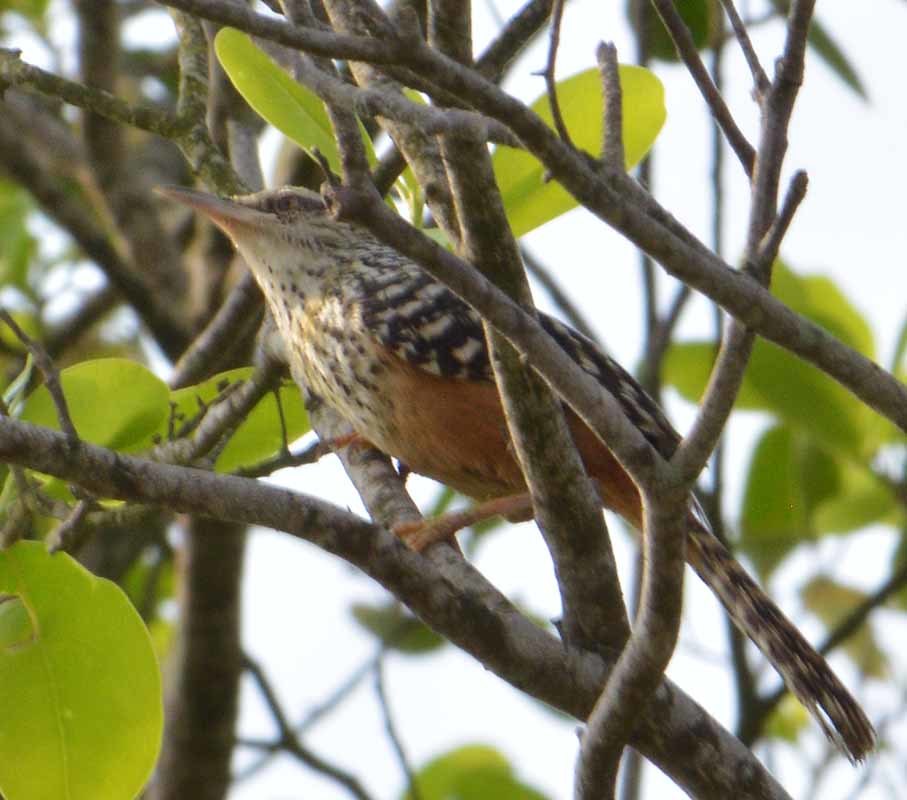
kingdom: Animalia
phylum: Chordata
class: Aves
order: Passeriformes
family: Troglodytidae
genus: Campylorhynchus
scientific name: Campylorhynchus zonatus
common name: Band-backed wren
